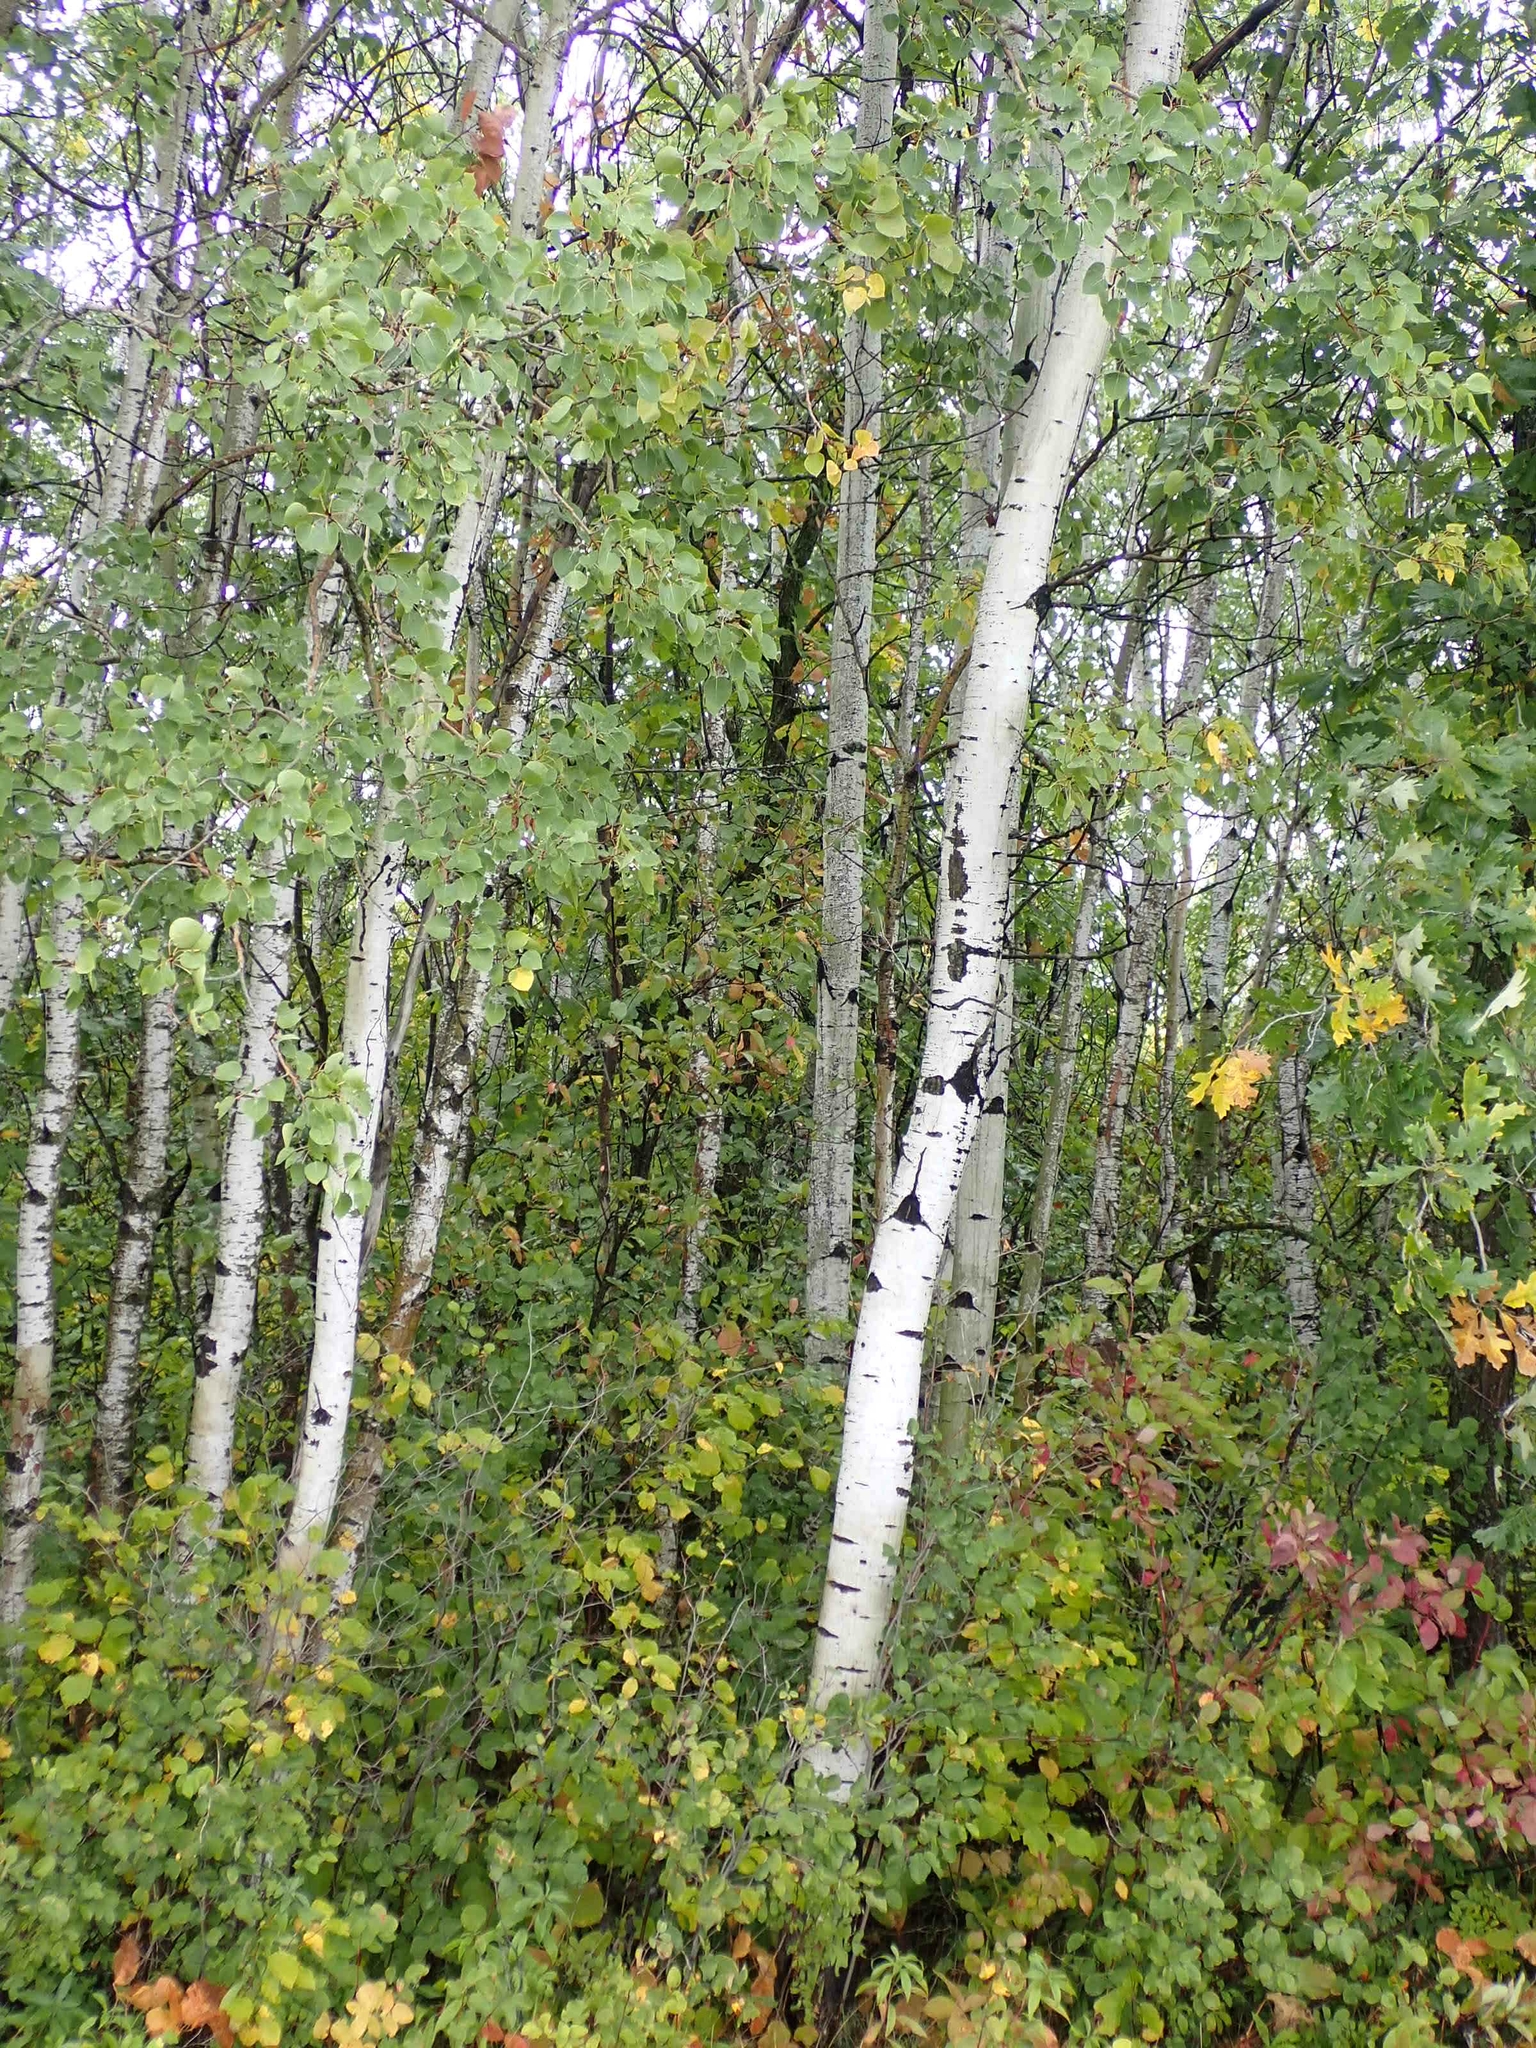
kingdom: Plantae
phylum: Tracheophyta
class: Magnoliopsida
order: Malpighiales
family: Salicaceae
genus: Populus
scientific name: Populus tremuloides
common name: Quaking aspen
